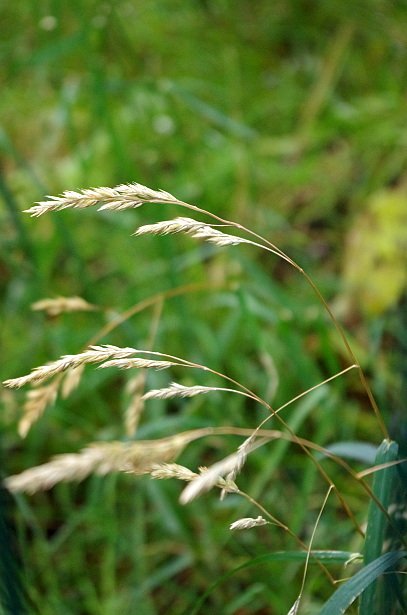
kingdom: Plantae
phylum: Tracheophyta
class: Liliopsida
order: Poales
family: Poaceae
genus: Dactylis
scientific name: Dactylis glomerata
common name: Orchardgrass
